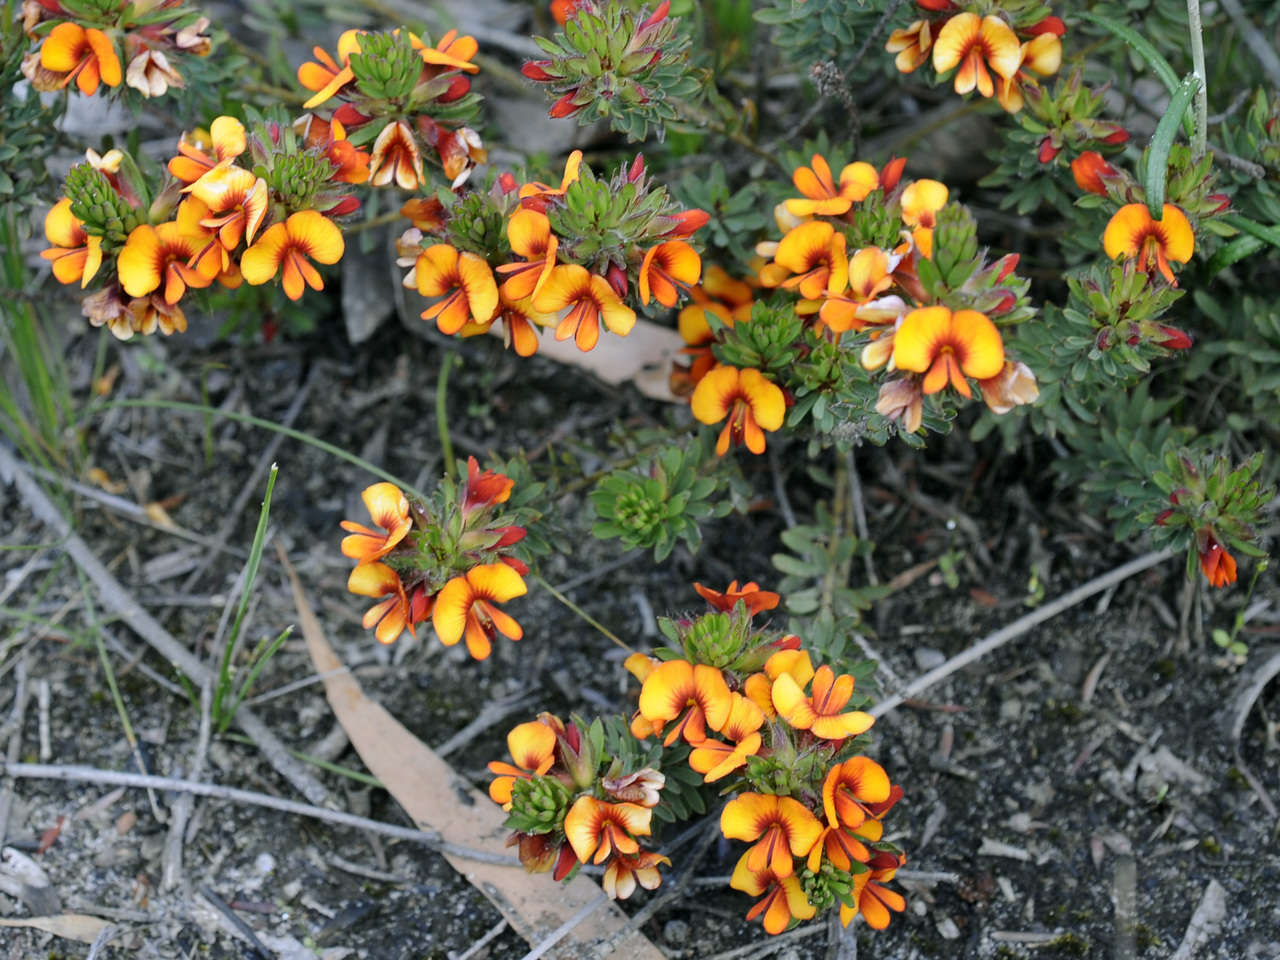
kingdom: Plantae
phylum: Tracheophyta
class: Magnoliopsida
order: Fabales
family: Fabaceae
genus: Pultenaea
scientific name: Pultenaea humilis
